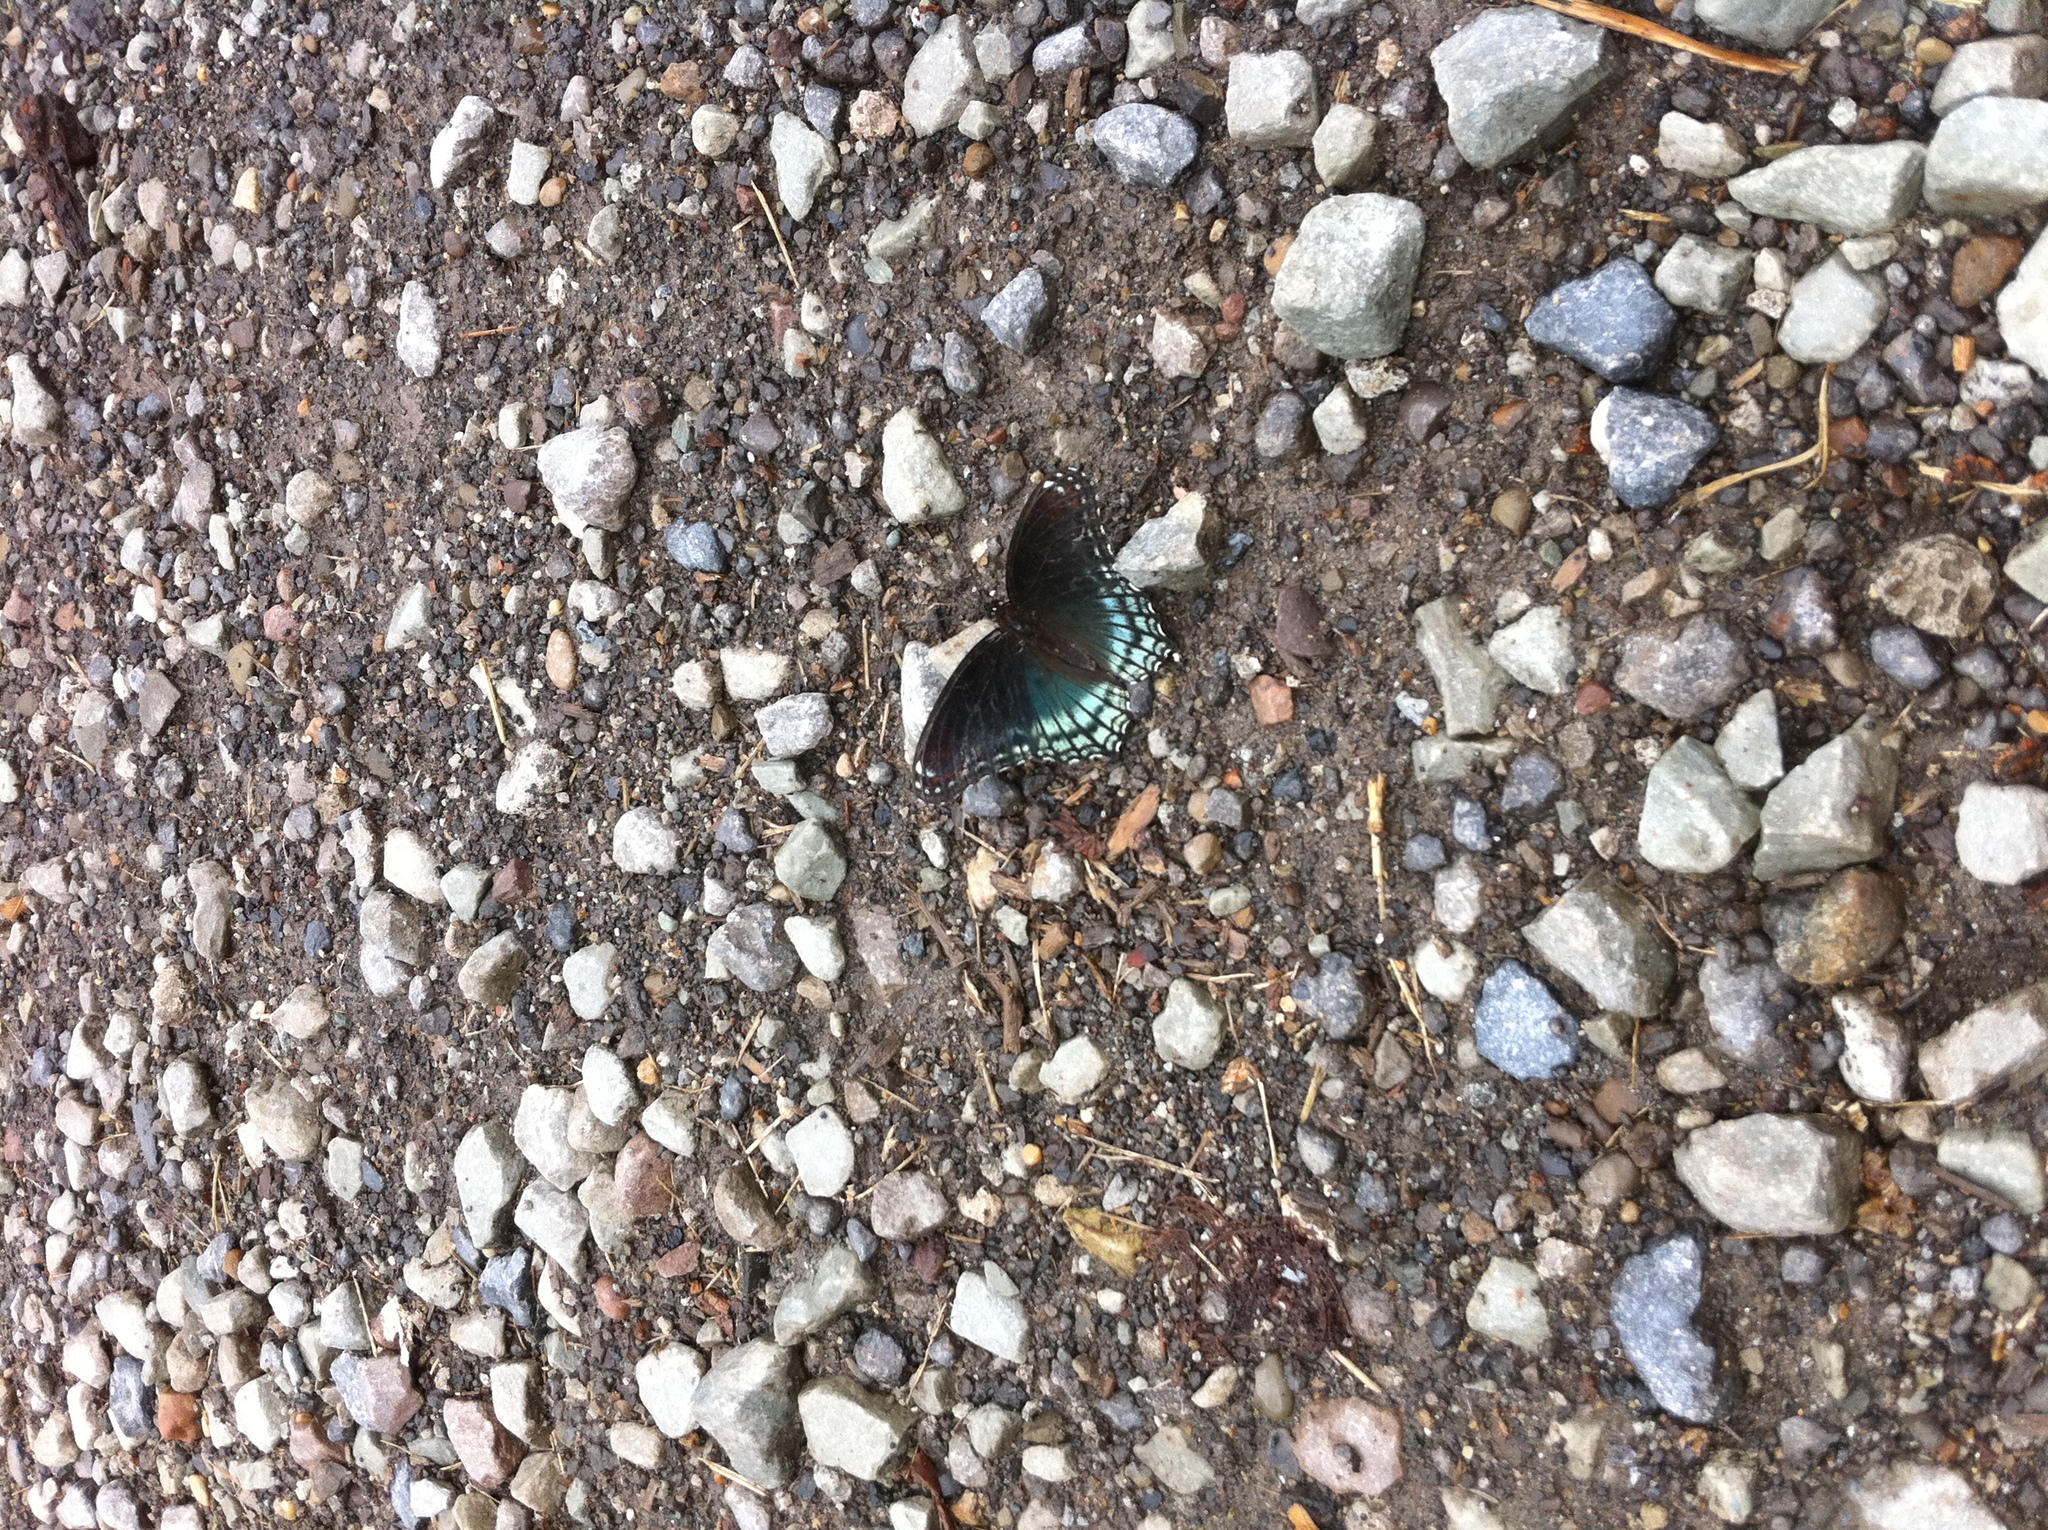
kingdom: Animalia
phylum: Arthropoda
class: Insecta
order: Lepidoptera
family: Nymphalidae
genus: Limenitis
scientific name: Limenitis astyanax
